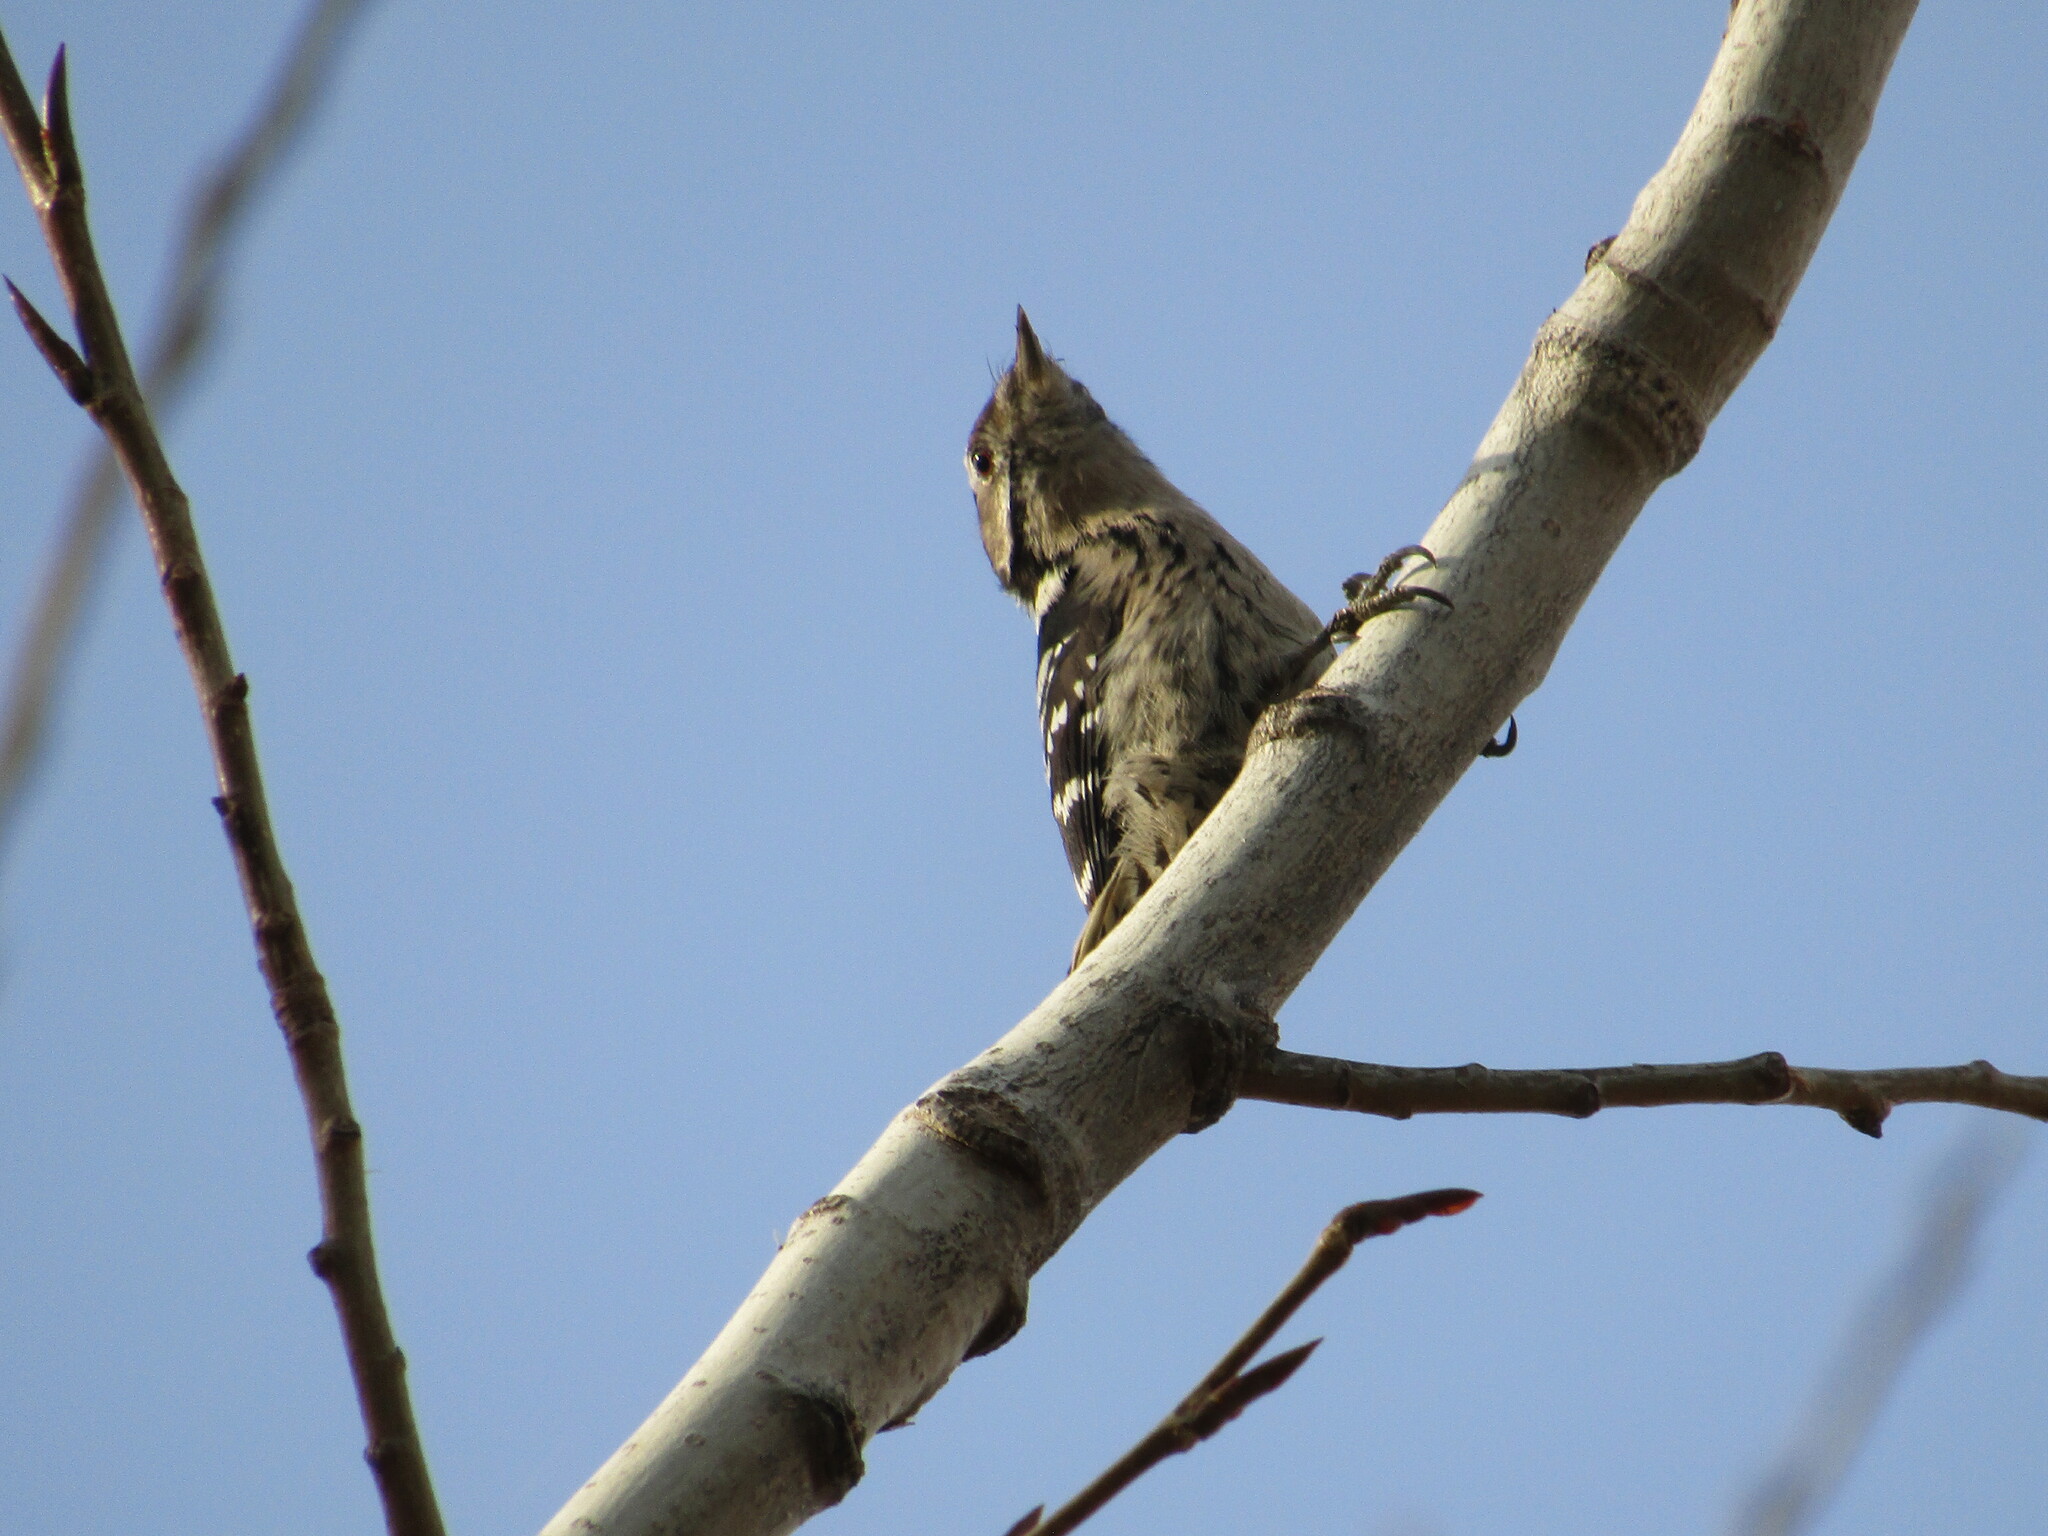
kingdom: Animalia
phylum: Chordata
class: Aves
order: Piciformes
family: Picidae
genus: Dryobates
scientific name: Dryobates minor
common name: Lesser spotted woodpecker
